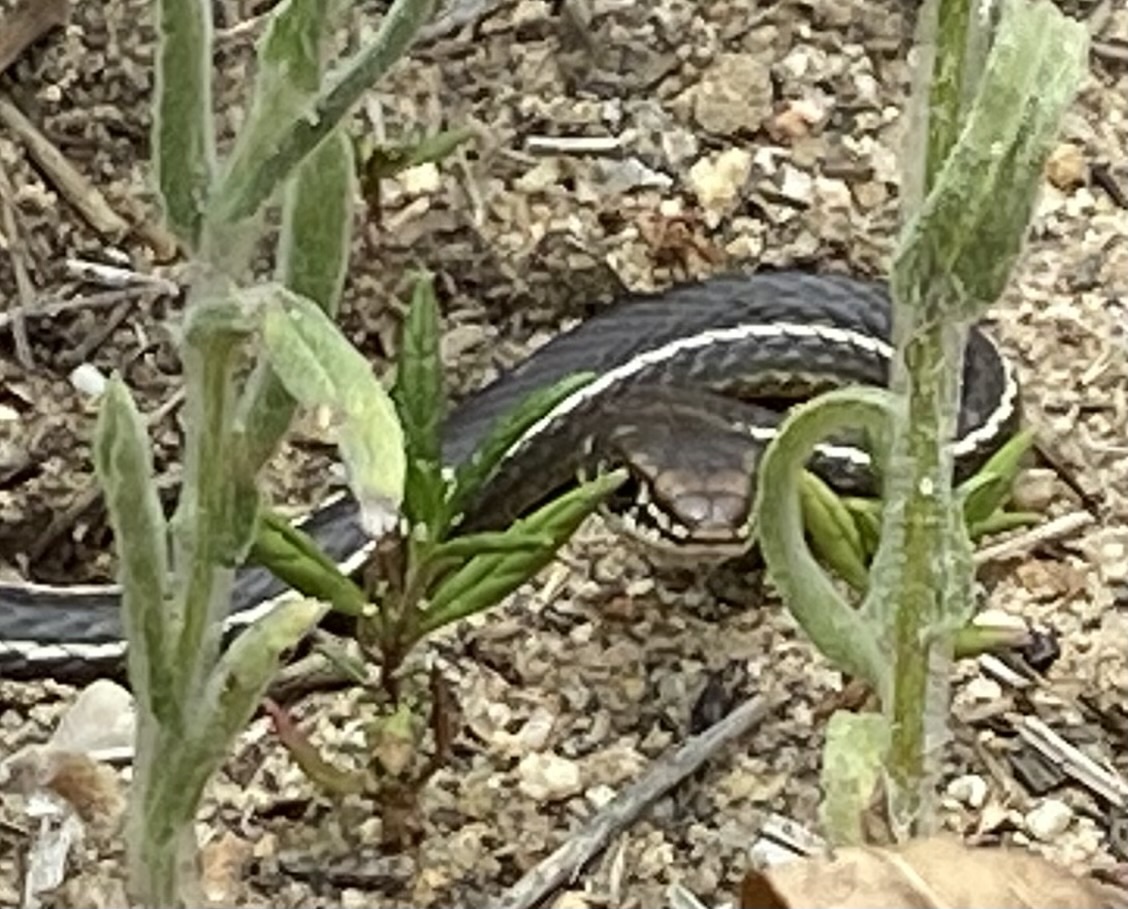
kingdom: Animalia
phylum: Chordata
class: Squamata
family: Colubridae
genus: Masticophis
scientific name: Masticophis lateralis
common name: Striped racer
